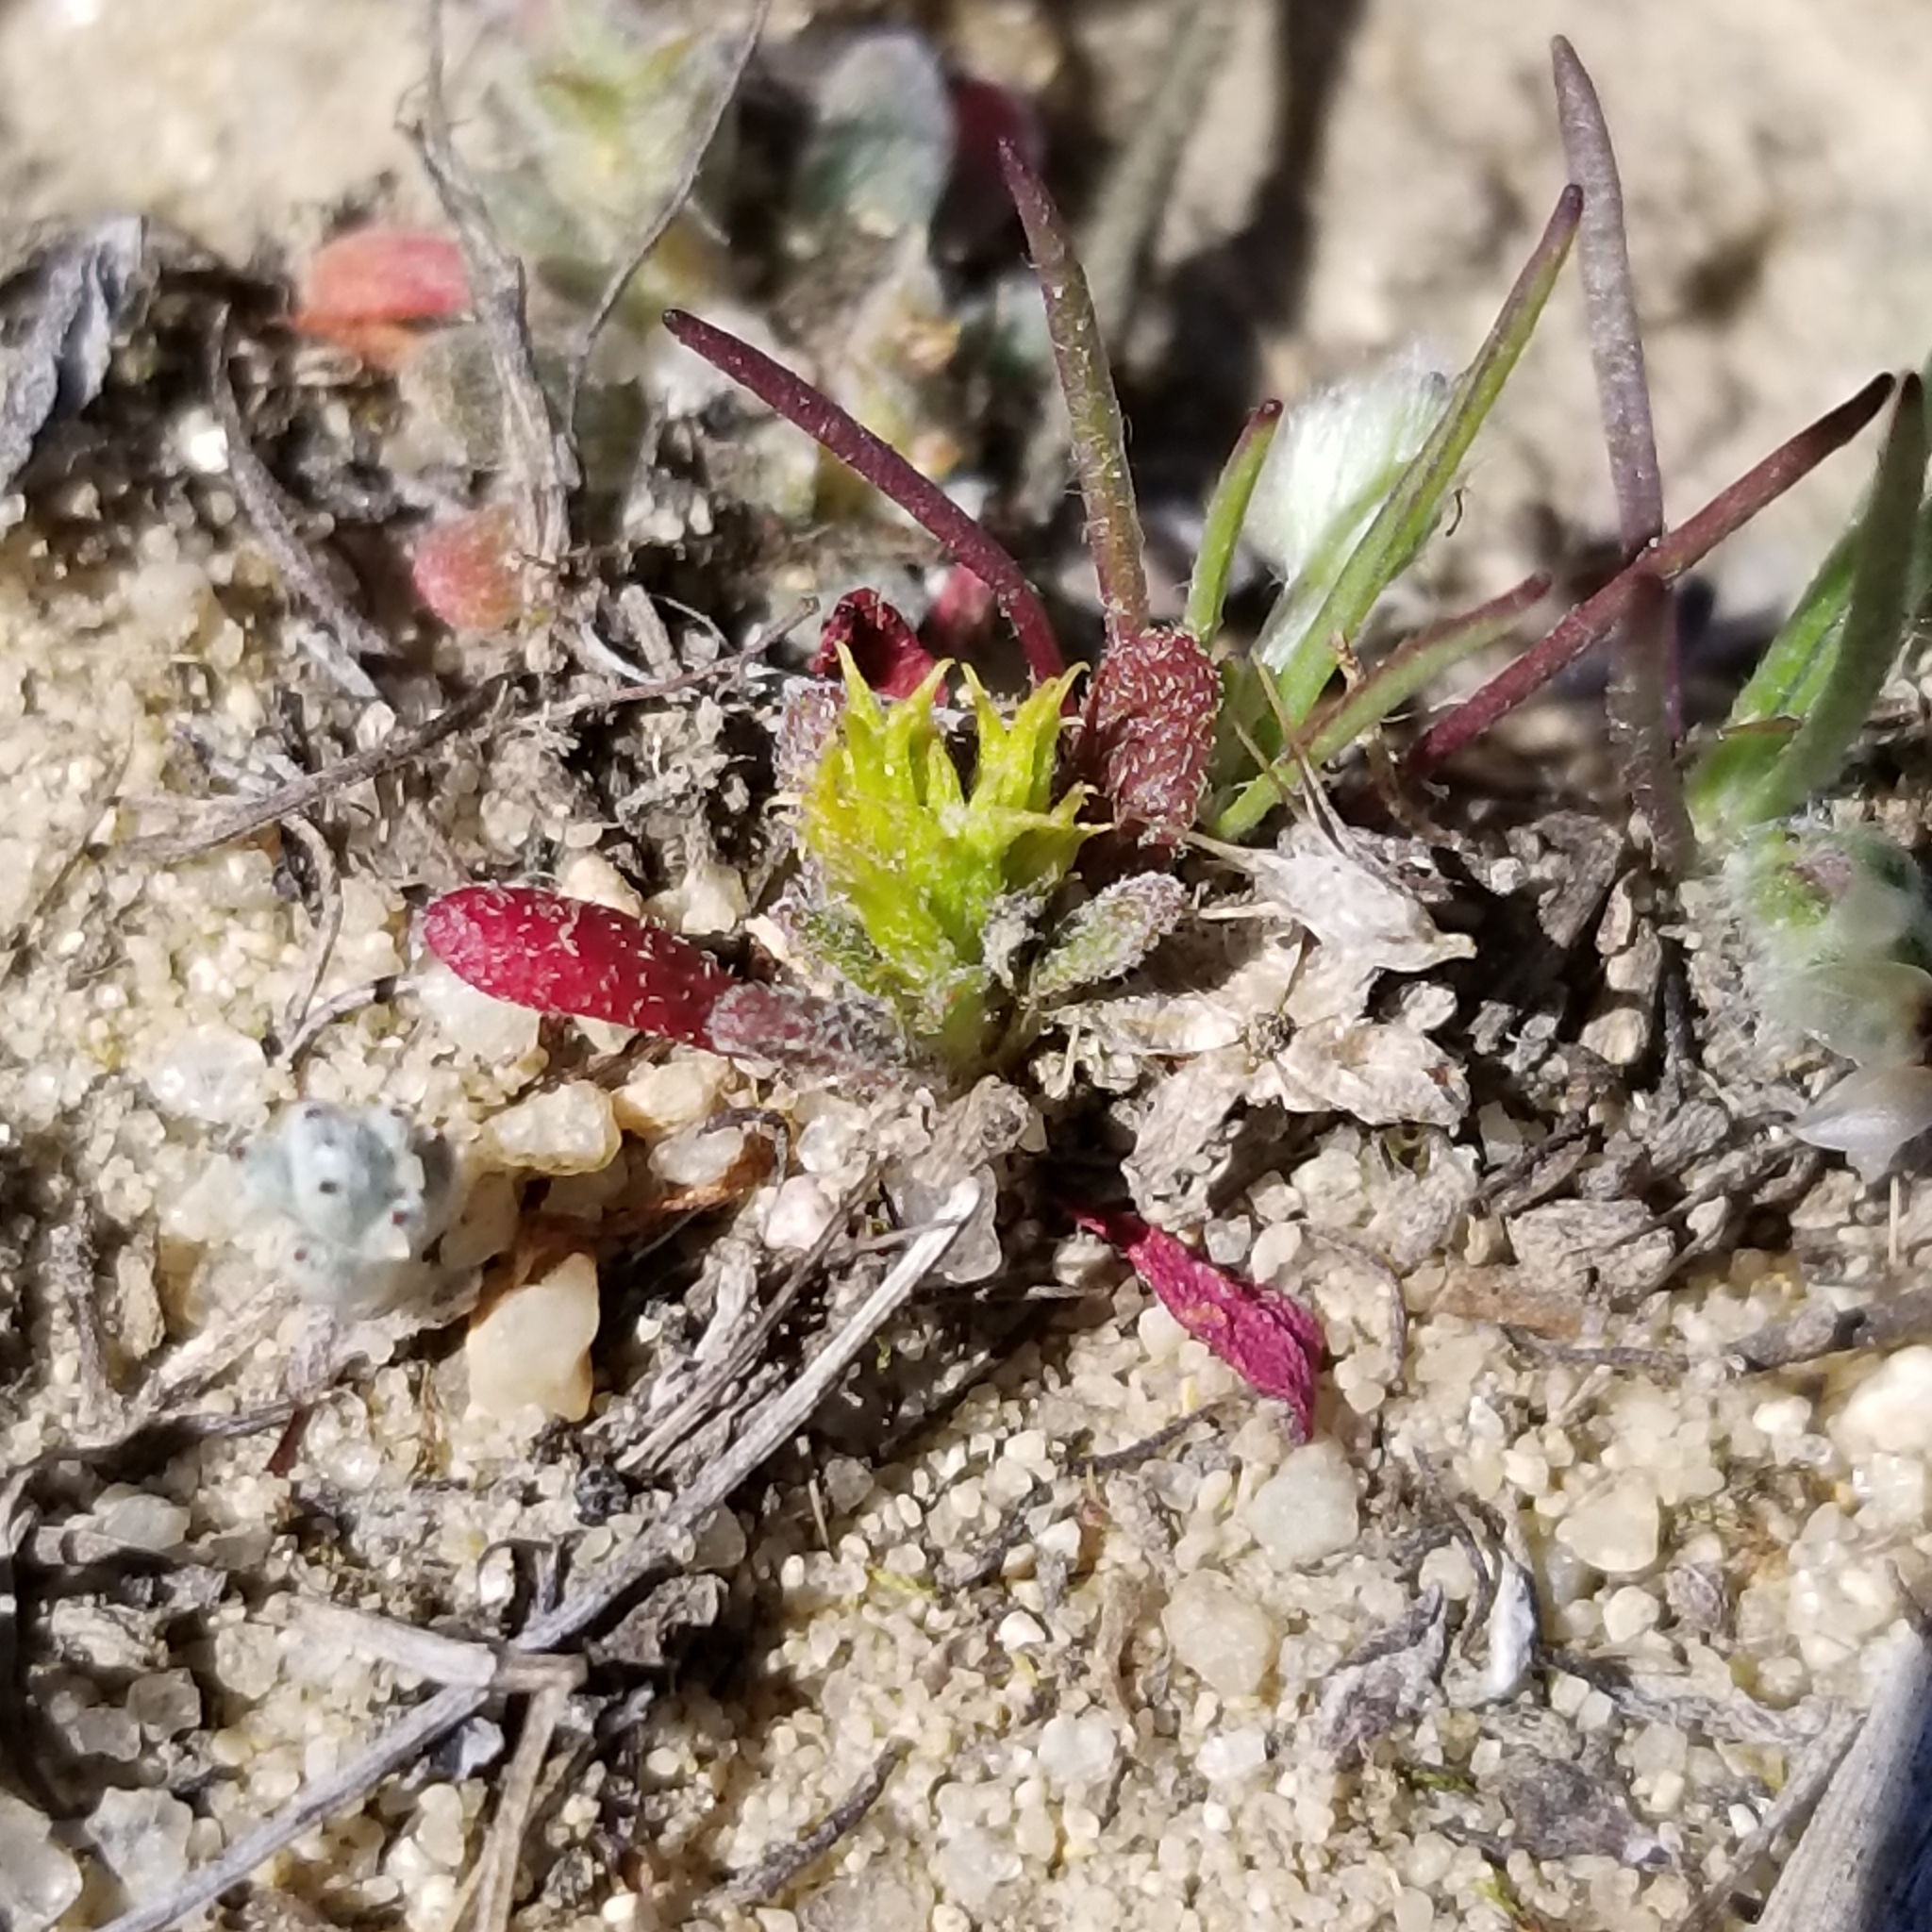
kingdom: Plantae
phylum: Tracheophyta
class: Magnoliopsida
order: Caryophyllales
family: Polygonaceae
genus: Chorizanthe
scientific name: Chorizanthe procumbens
